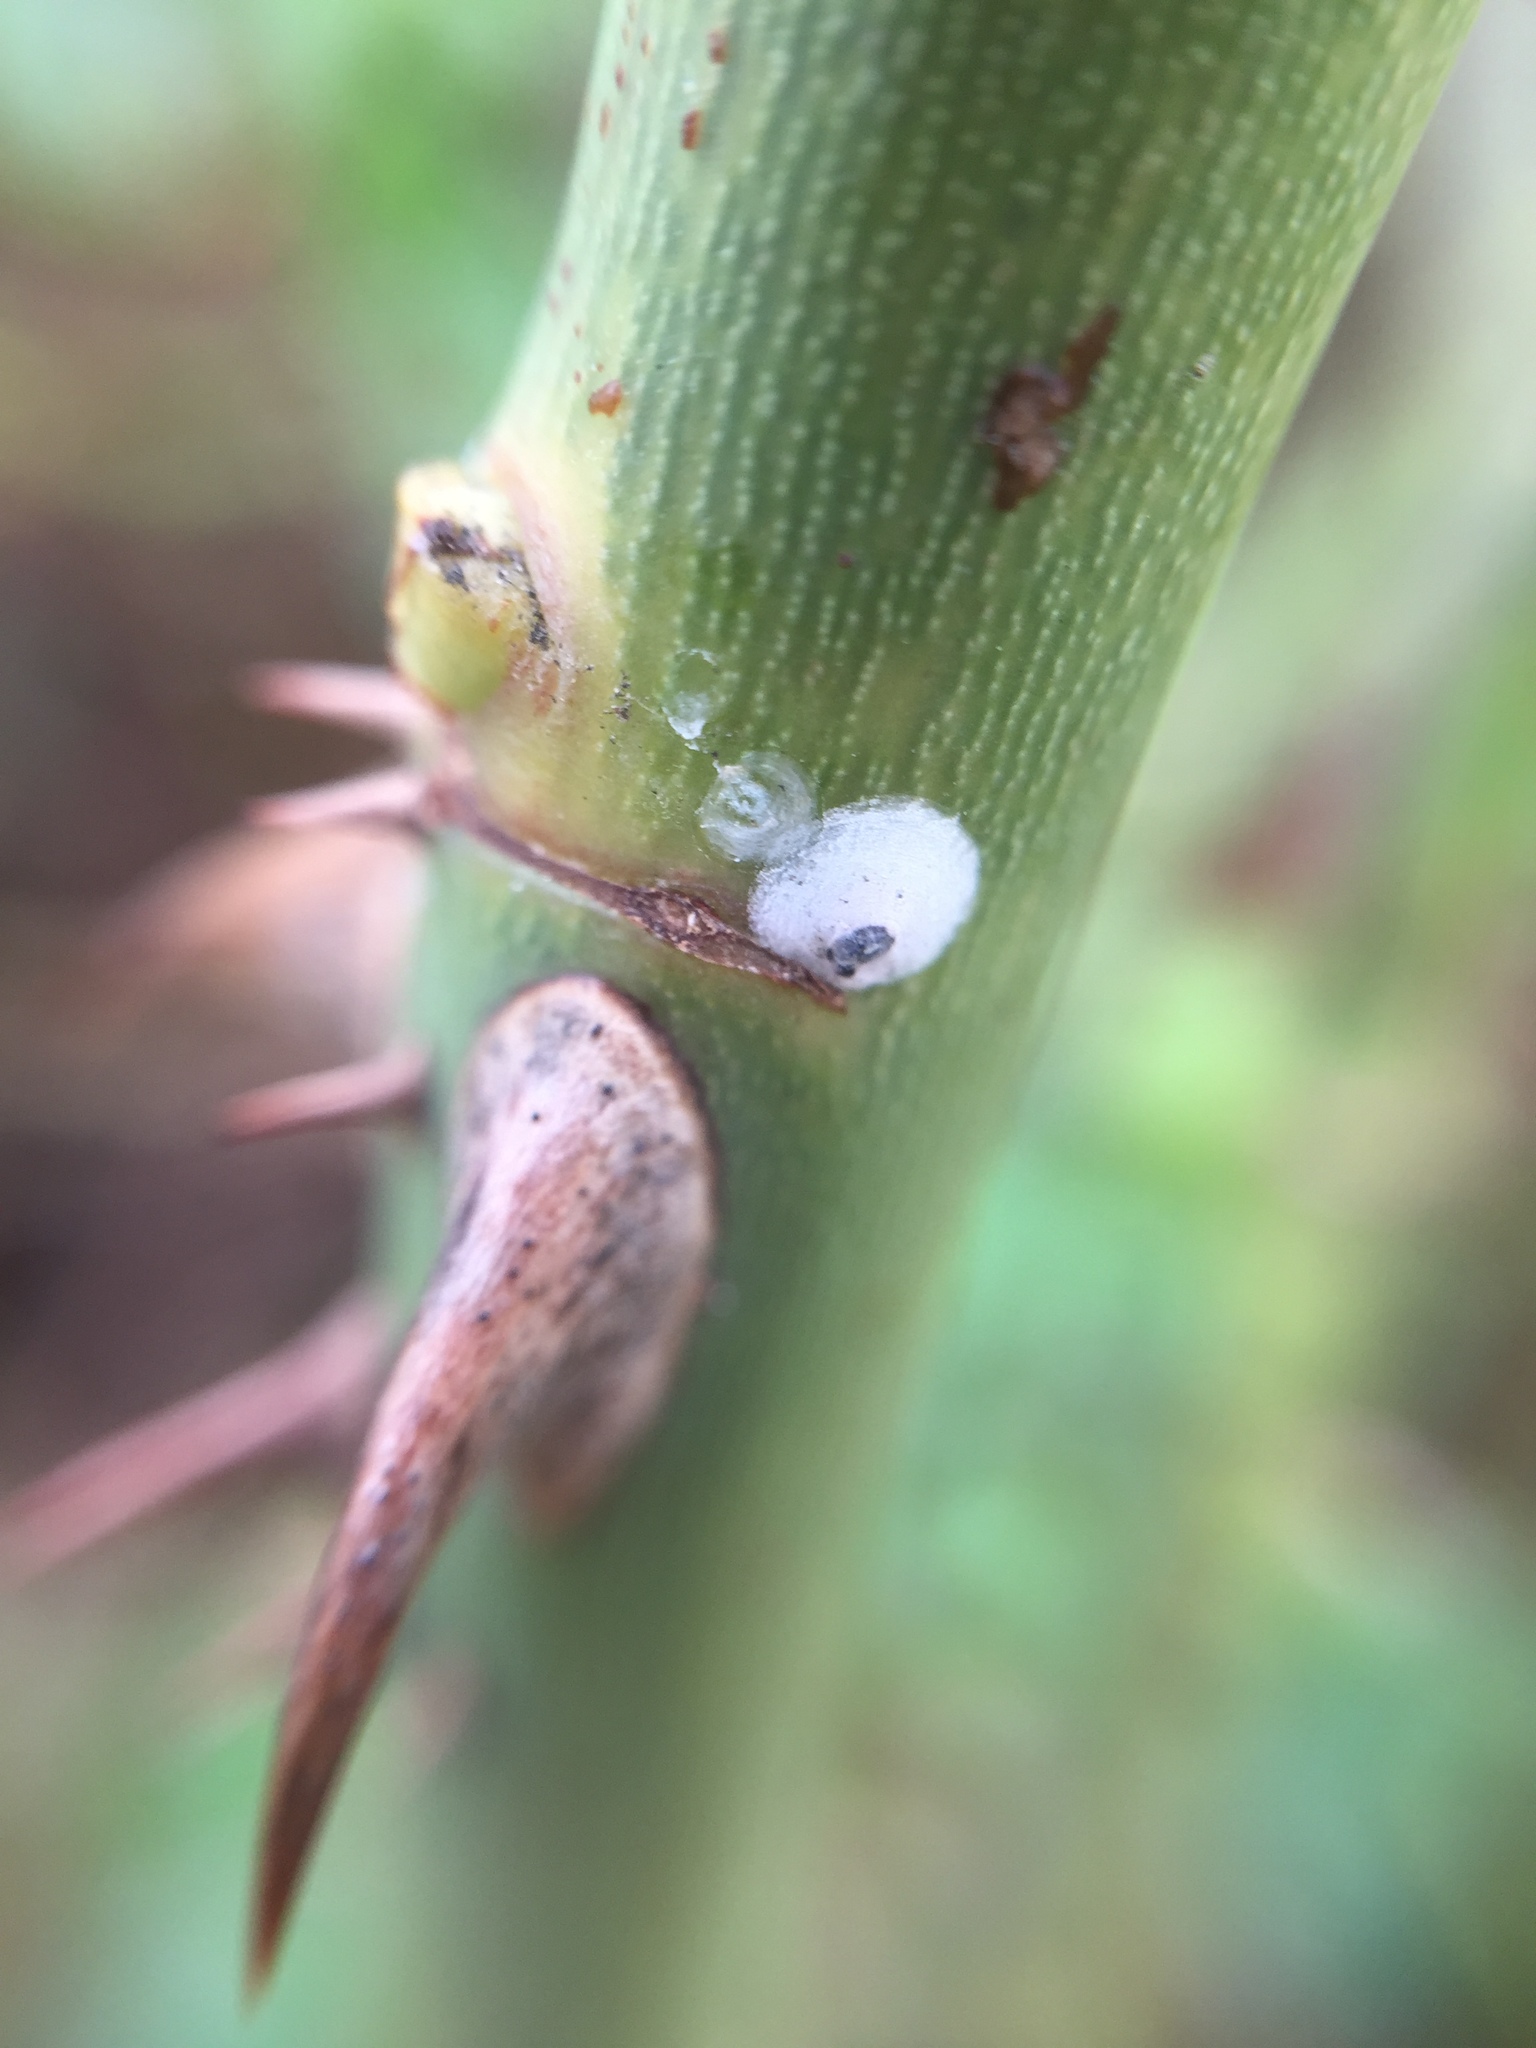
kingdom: Animalia
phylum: Arthropoda
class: Insecta
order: Hemiptera
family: Diaspididae
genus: Aulacaspis
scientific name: Aulacaspis rosarum
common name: Asiatic rose scale
